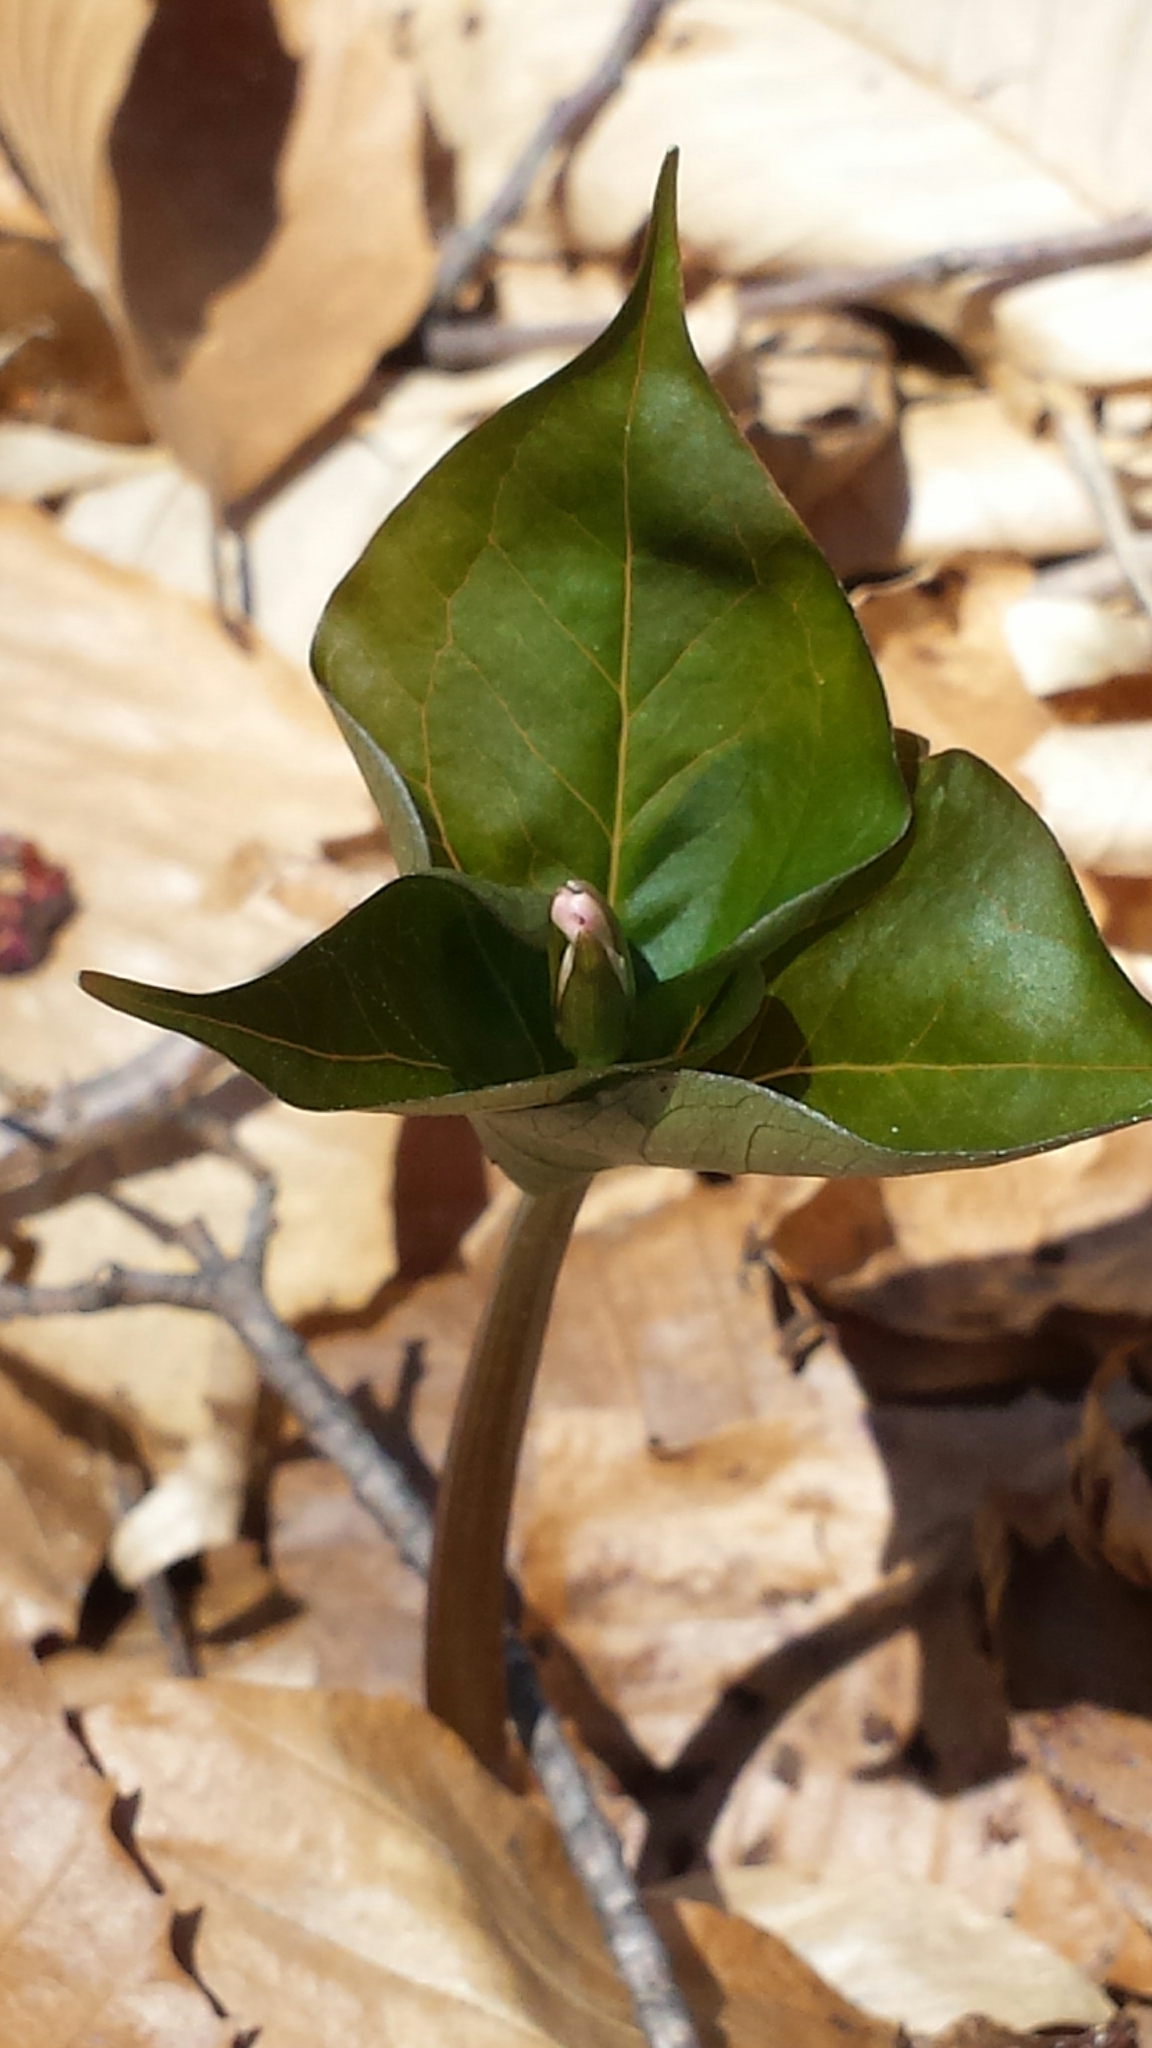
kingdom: Plantae
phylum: Tracheophyta
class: Liliopsida
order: Liliales
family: Melanthiaceae
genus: Trillium
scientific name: Trillium undulatum
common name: Paint trillium
